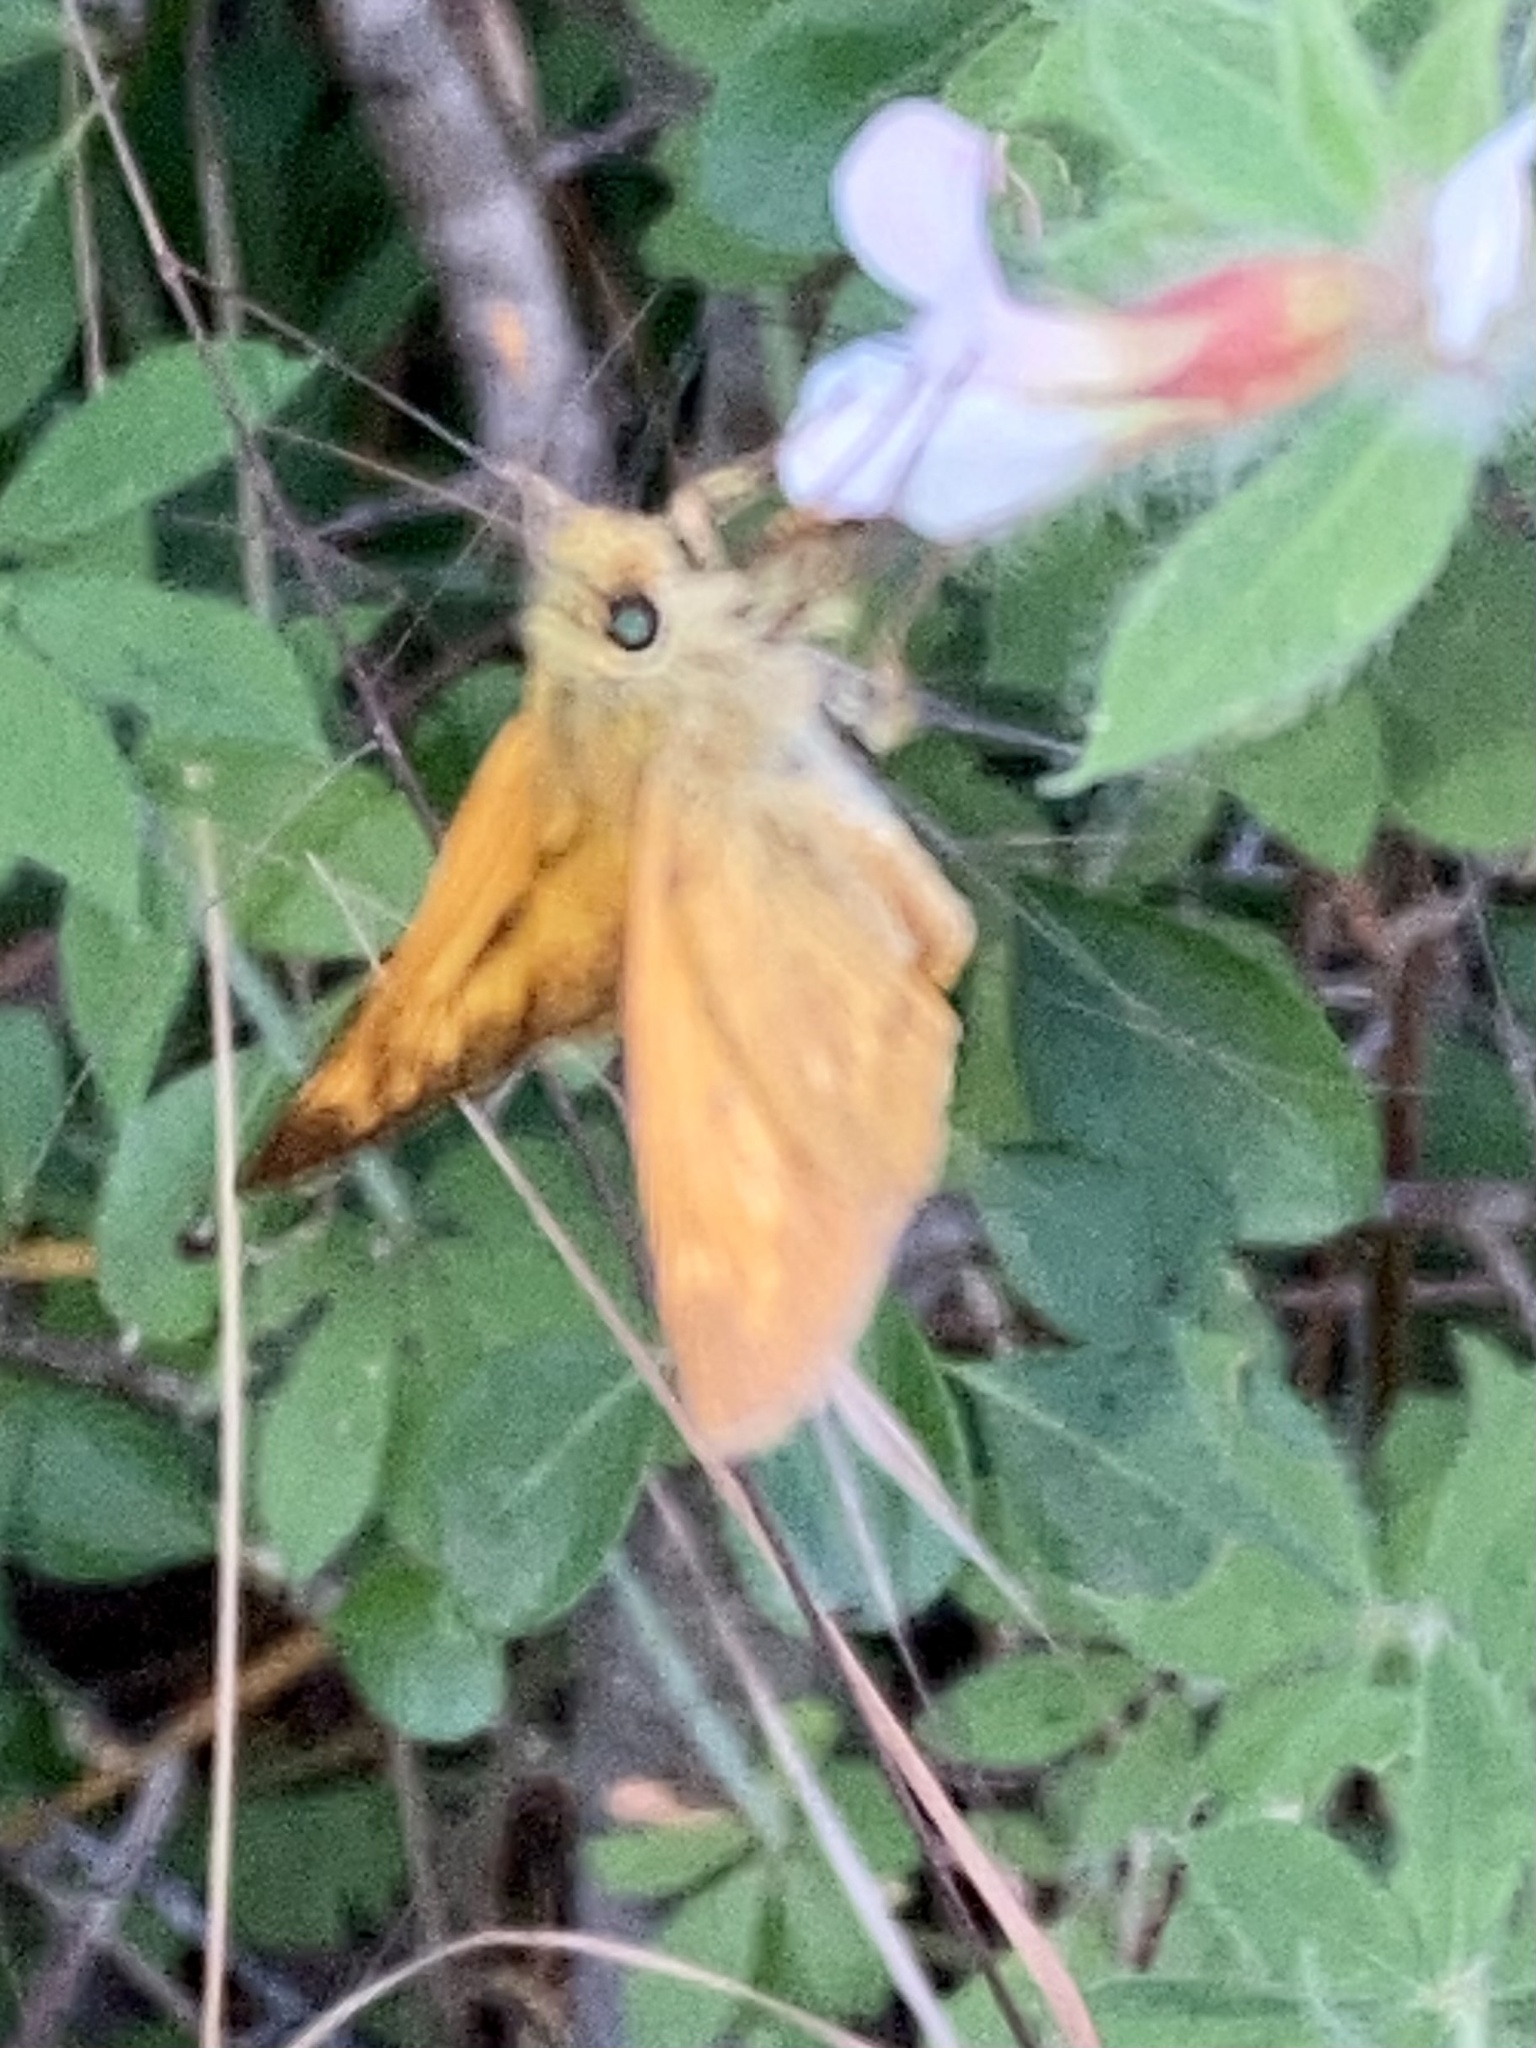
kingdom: Animalia
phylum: Arthropoda
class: Insecta
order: Lepidoptera
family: Hesperiidae
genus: Ochlodes
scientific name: Ochlodes venata
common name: Large skipper
